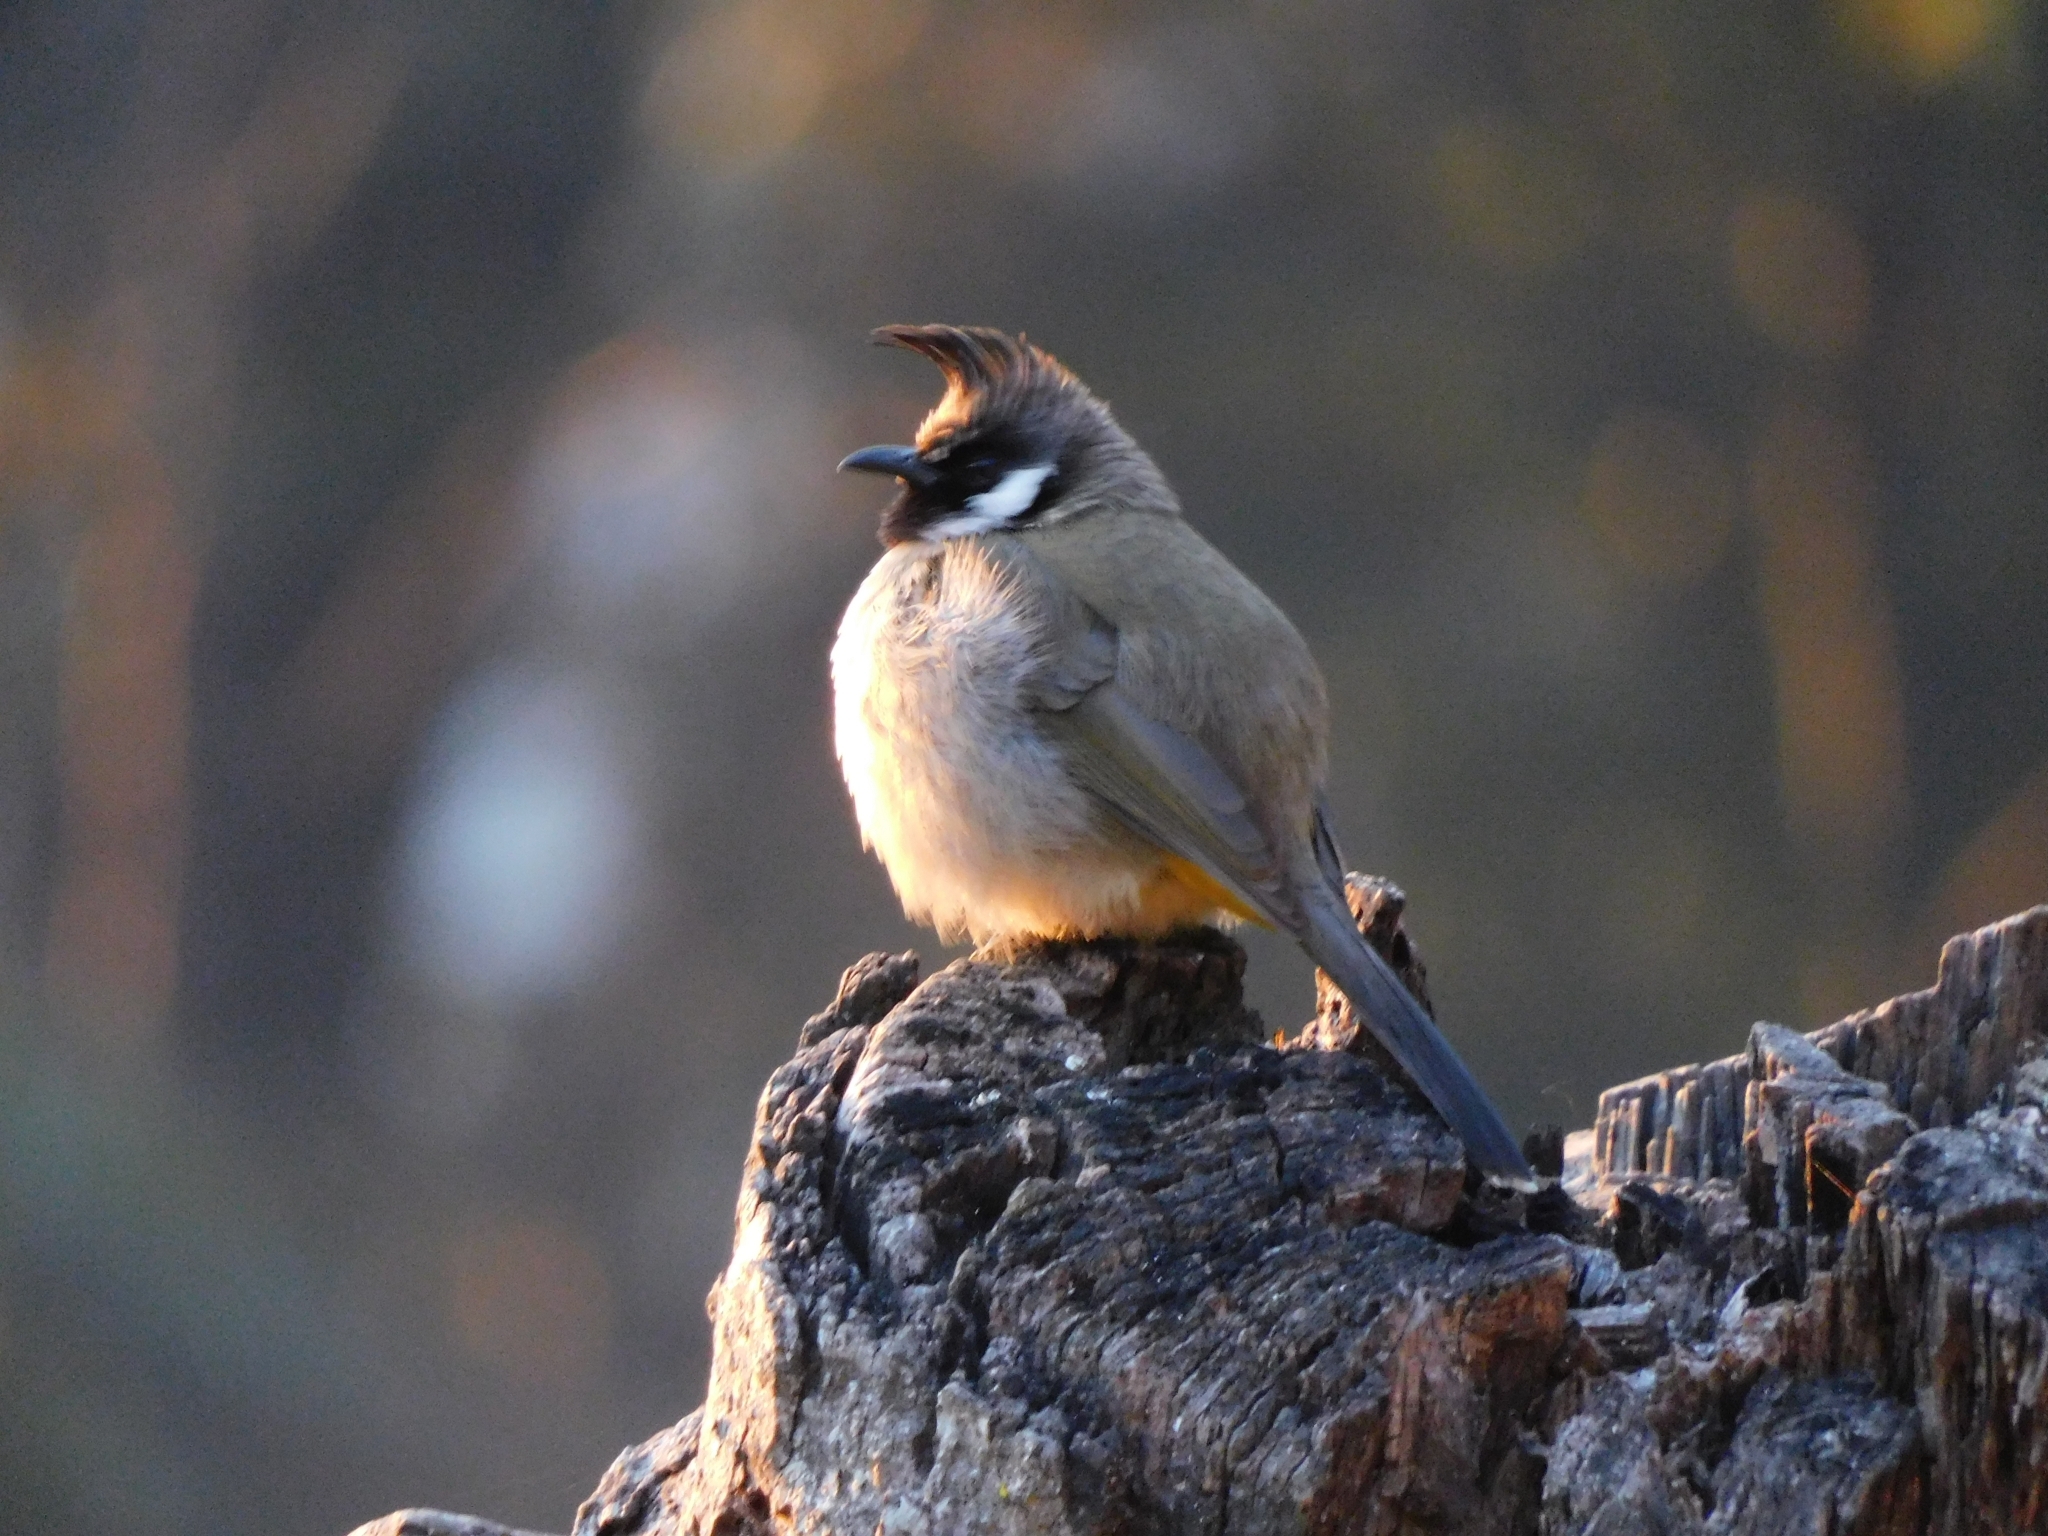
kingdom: Animalia
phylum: Chordata
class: Aves
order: Passeriformes
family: Pycnonotidae
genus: Pycnonotus
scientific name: Pycnonotus leucogenys
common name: Himalayan bulbul
